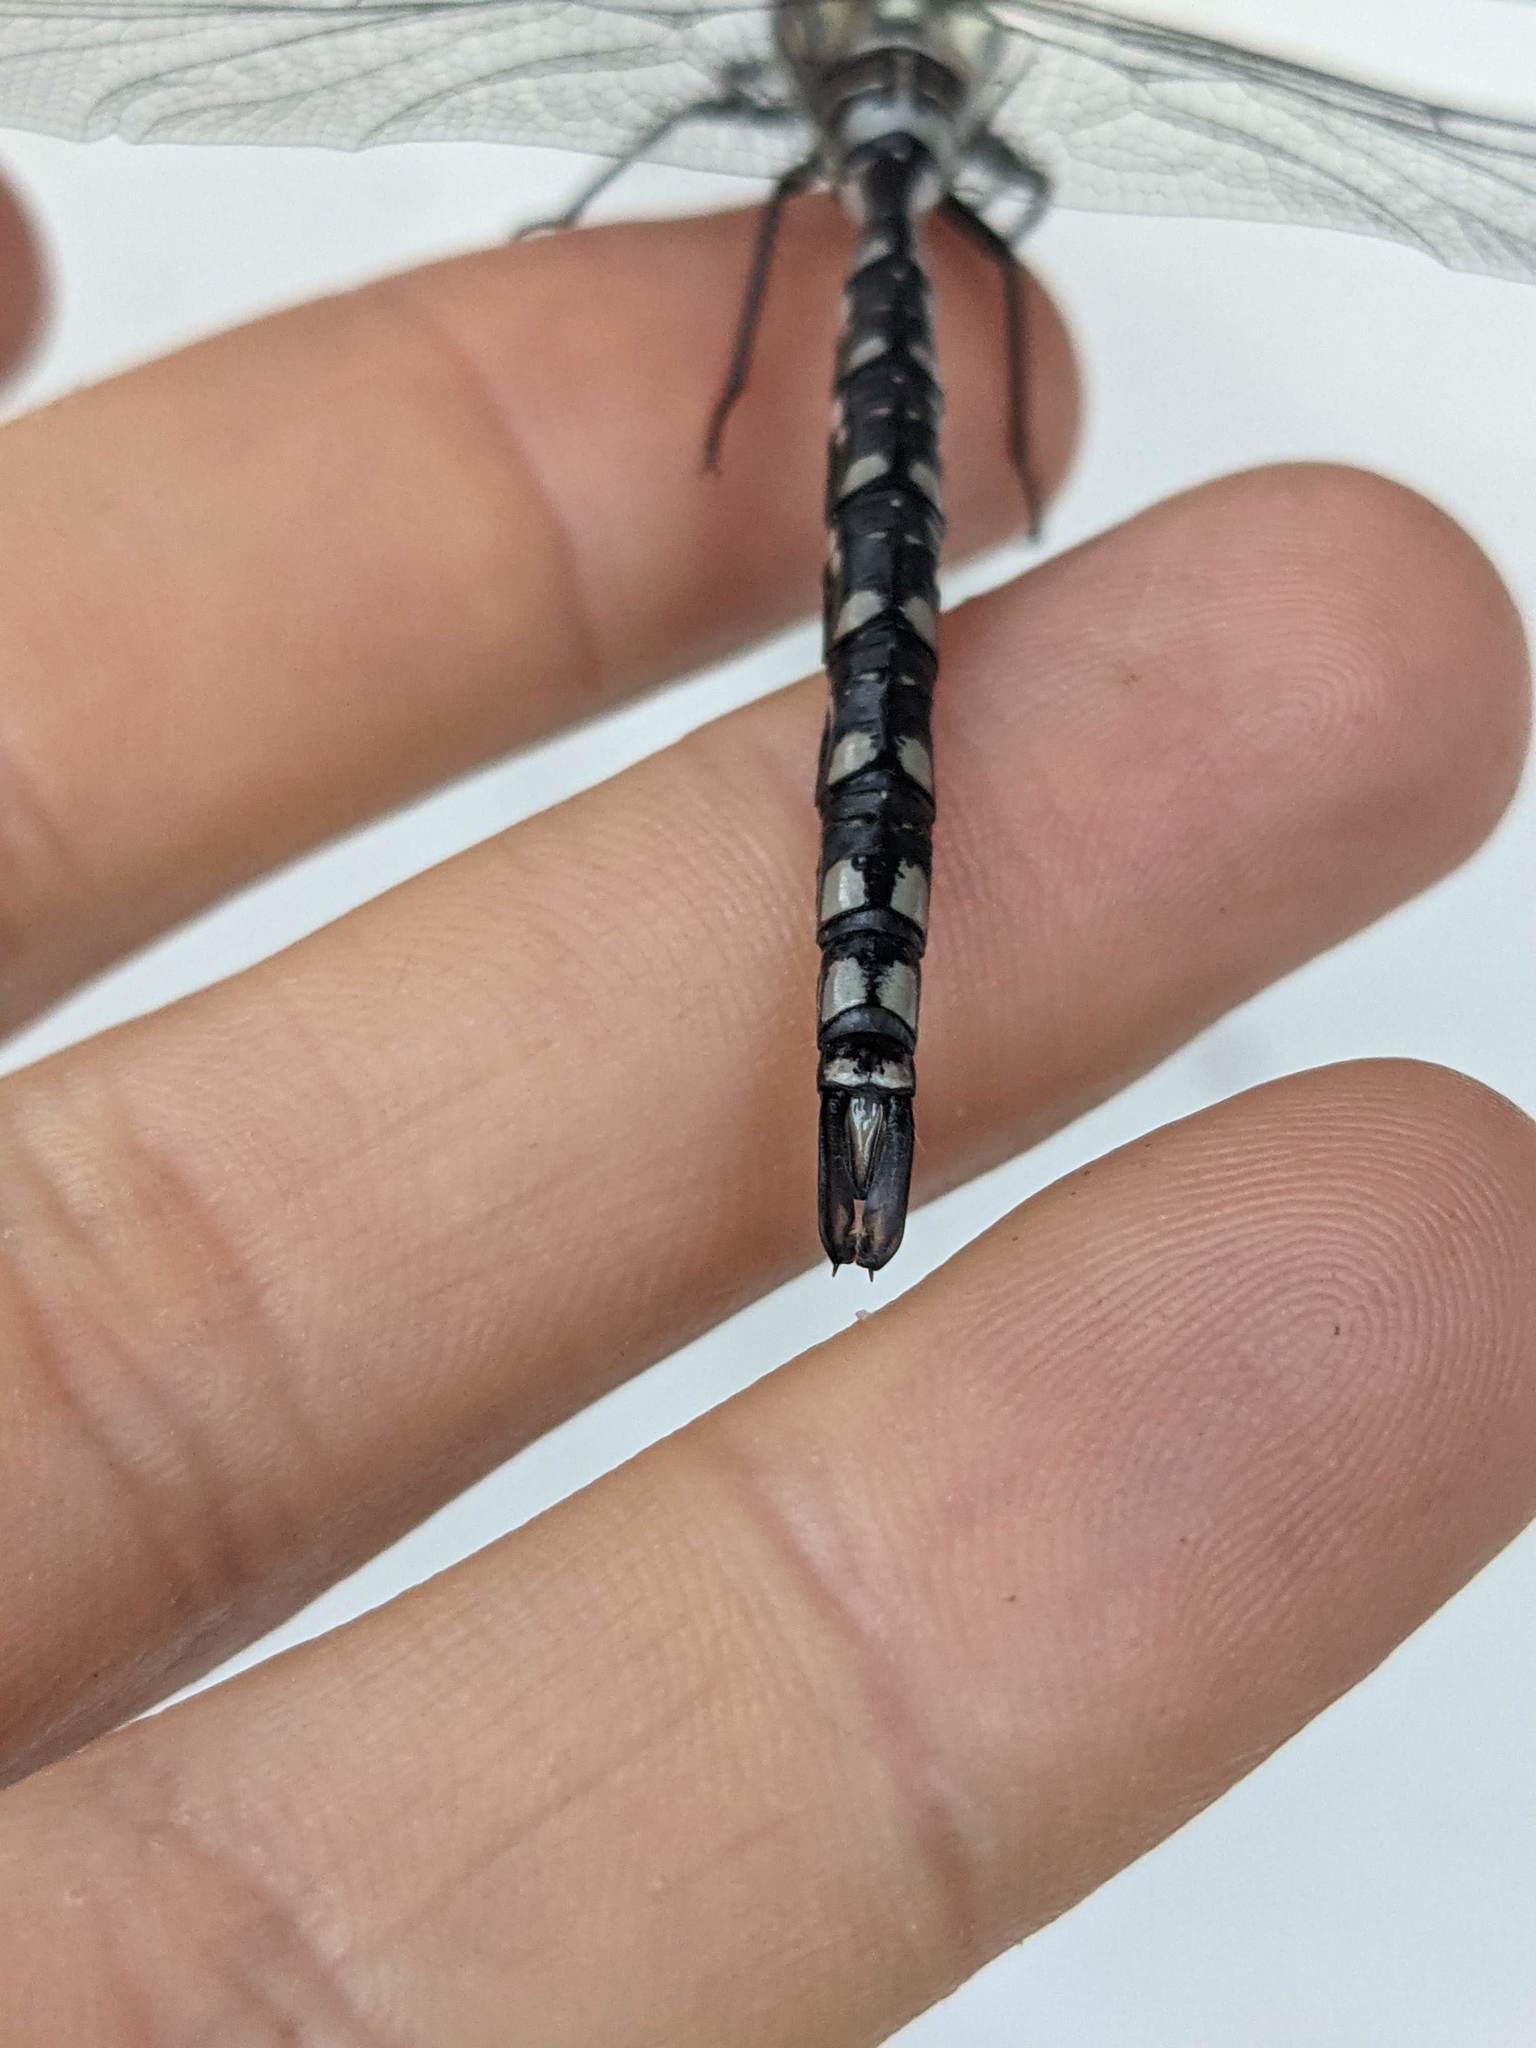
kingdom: Animalia
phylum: Arthropoda
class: Insecta
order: Odonata
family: Aeshnidae
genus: Aeshna
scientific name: Aeshna palmata
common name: Paddle-tailed darner
